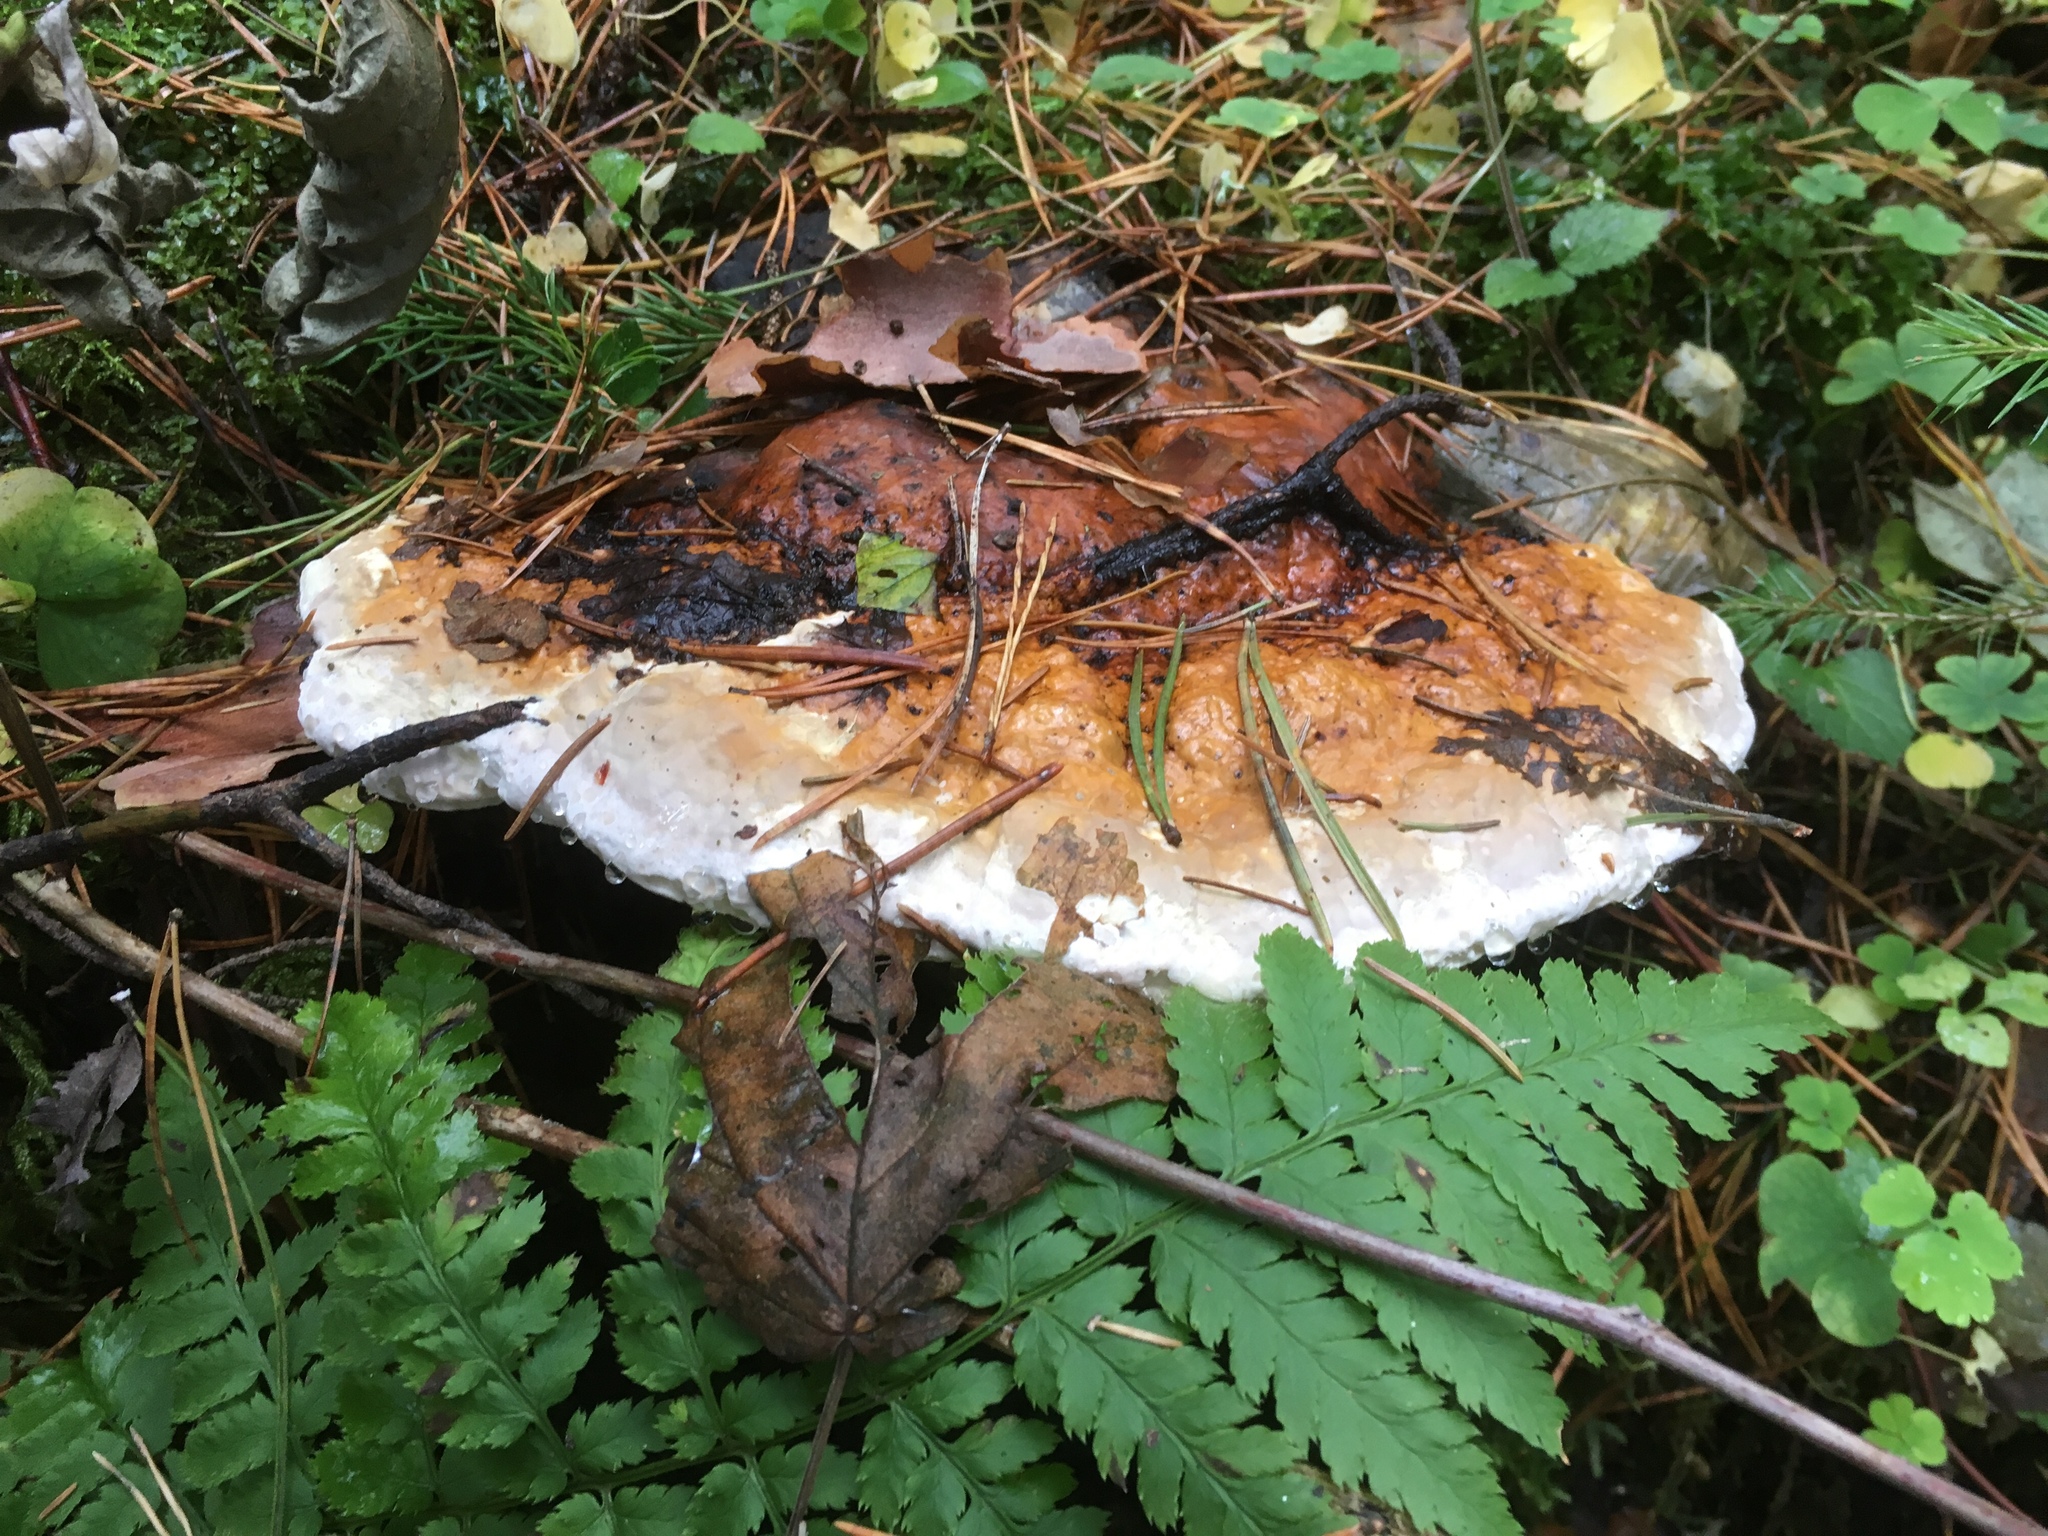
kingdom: Fungi
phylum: Basidiomycota
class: Agaricomycetes
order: Polyporales
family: Fomitopsidaceae
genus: Fomitopsis
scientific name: Fomitopsis pinicola
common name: Red-belted bracket
